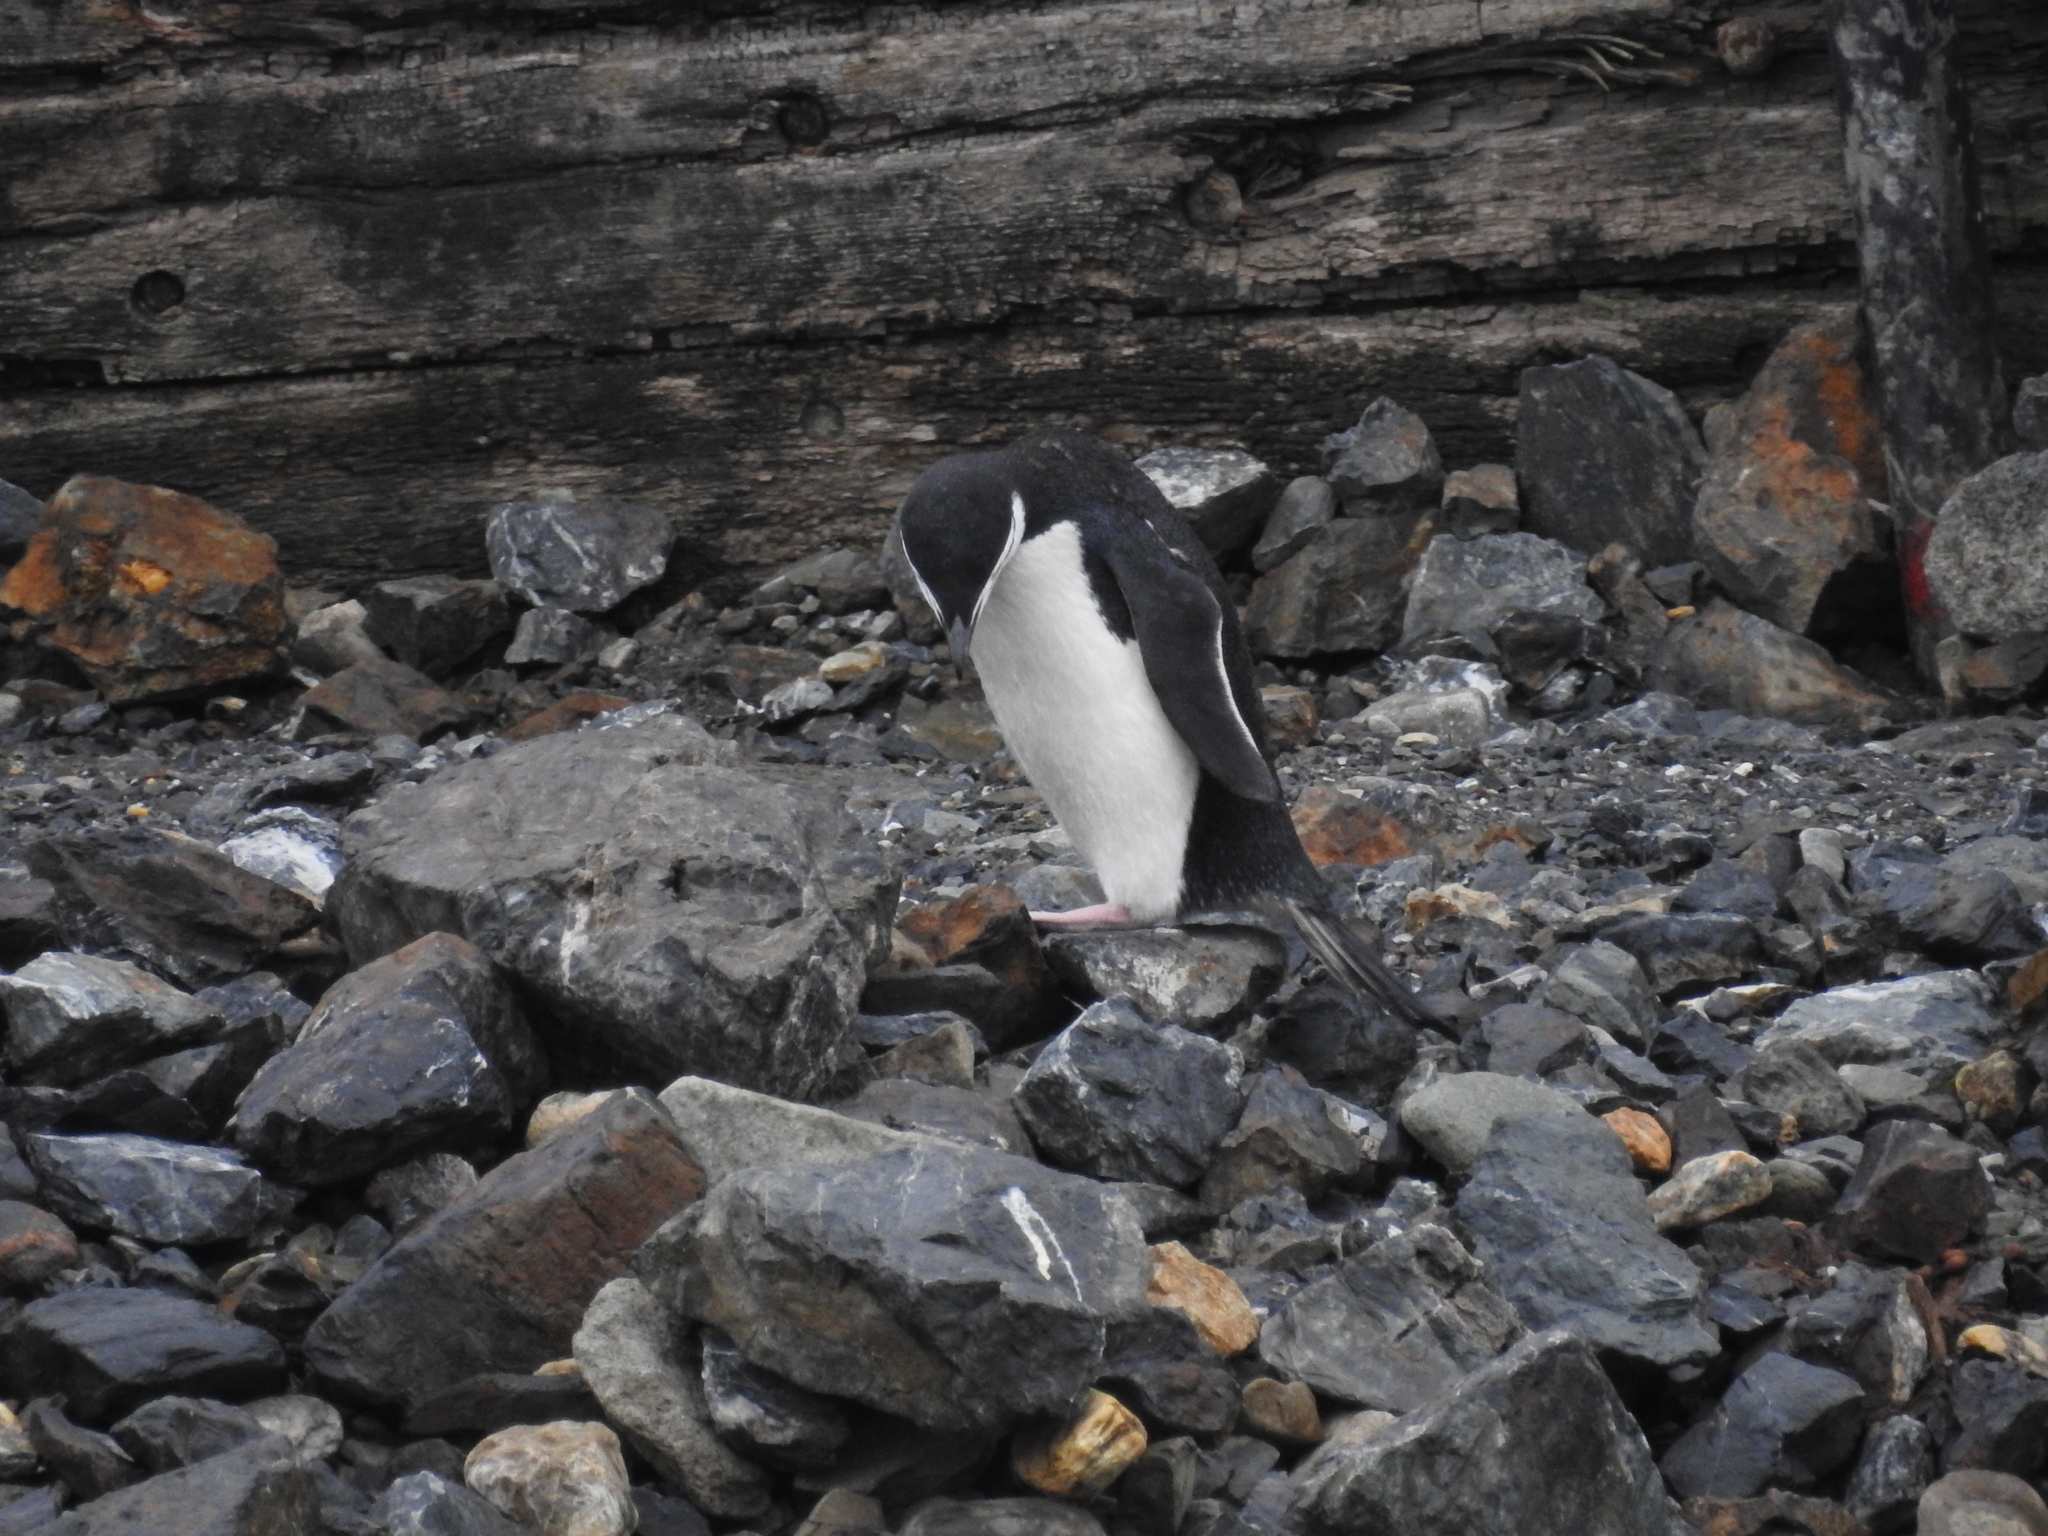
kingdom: Animalia
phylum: Chordata
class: Aves
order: Sphenisciformes
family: Spheniscidae
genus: Pygoscelis
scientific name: Pygoscelis antarcticus
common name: Chinstrap penguin
